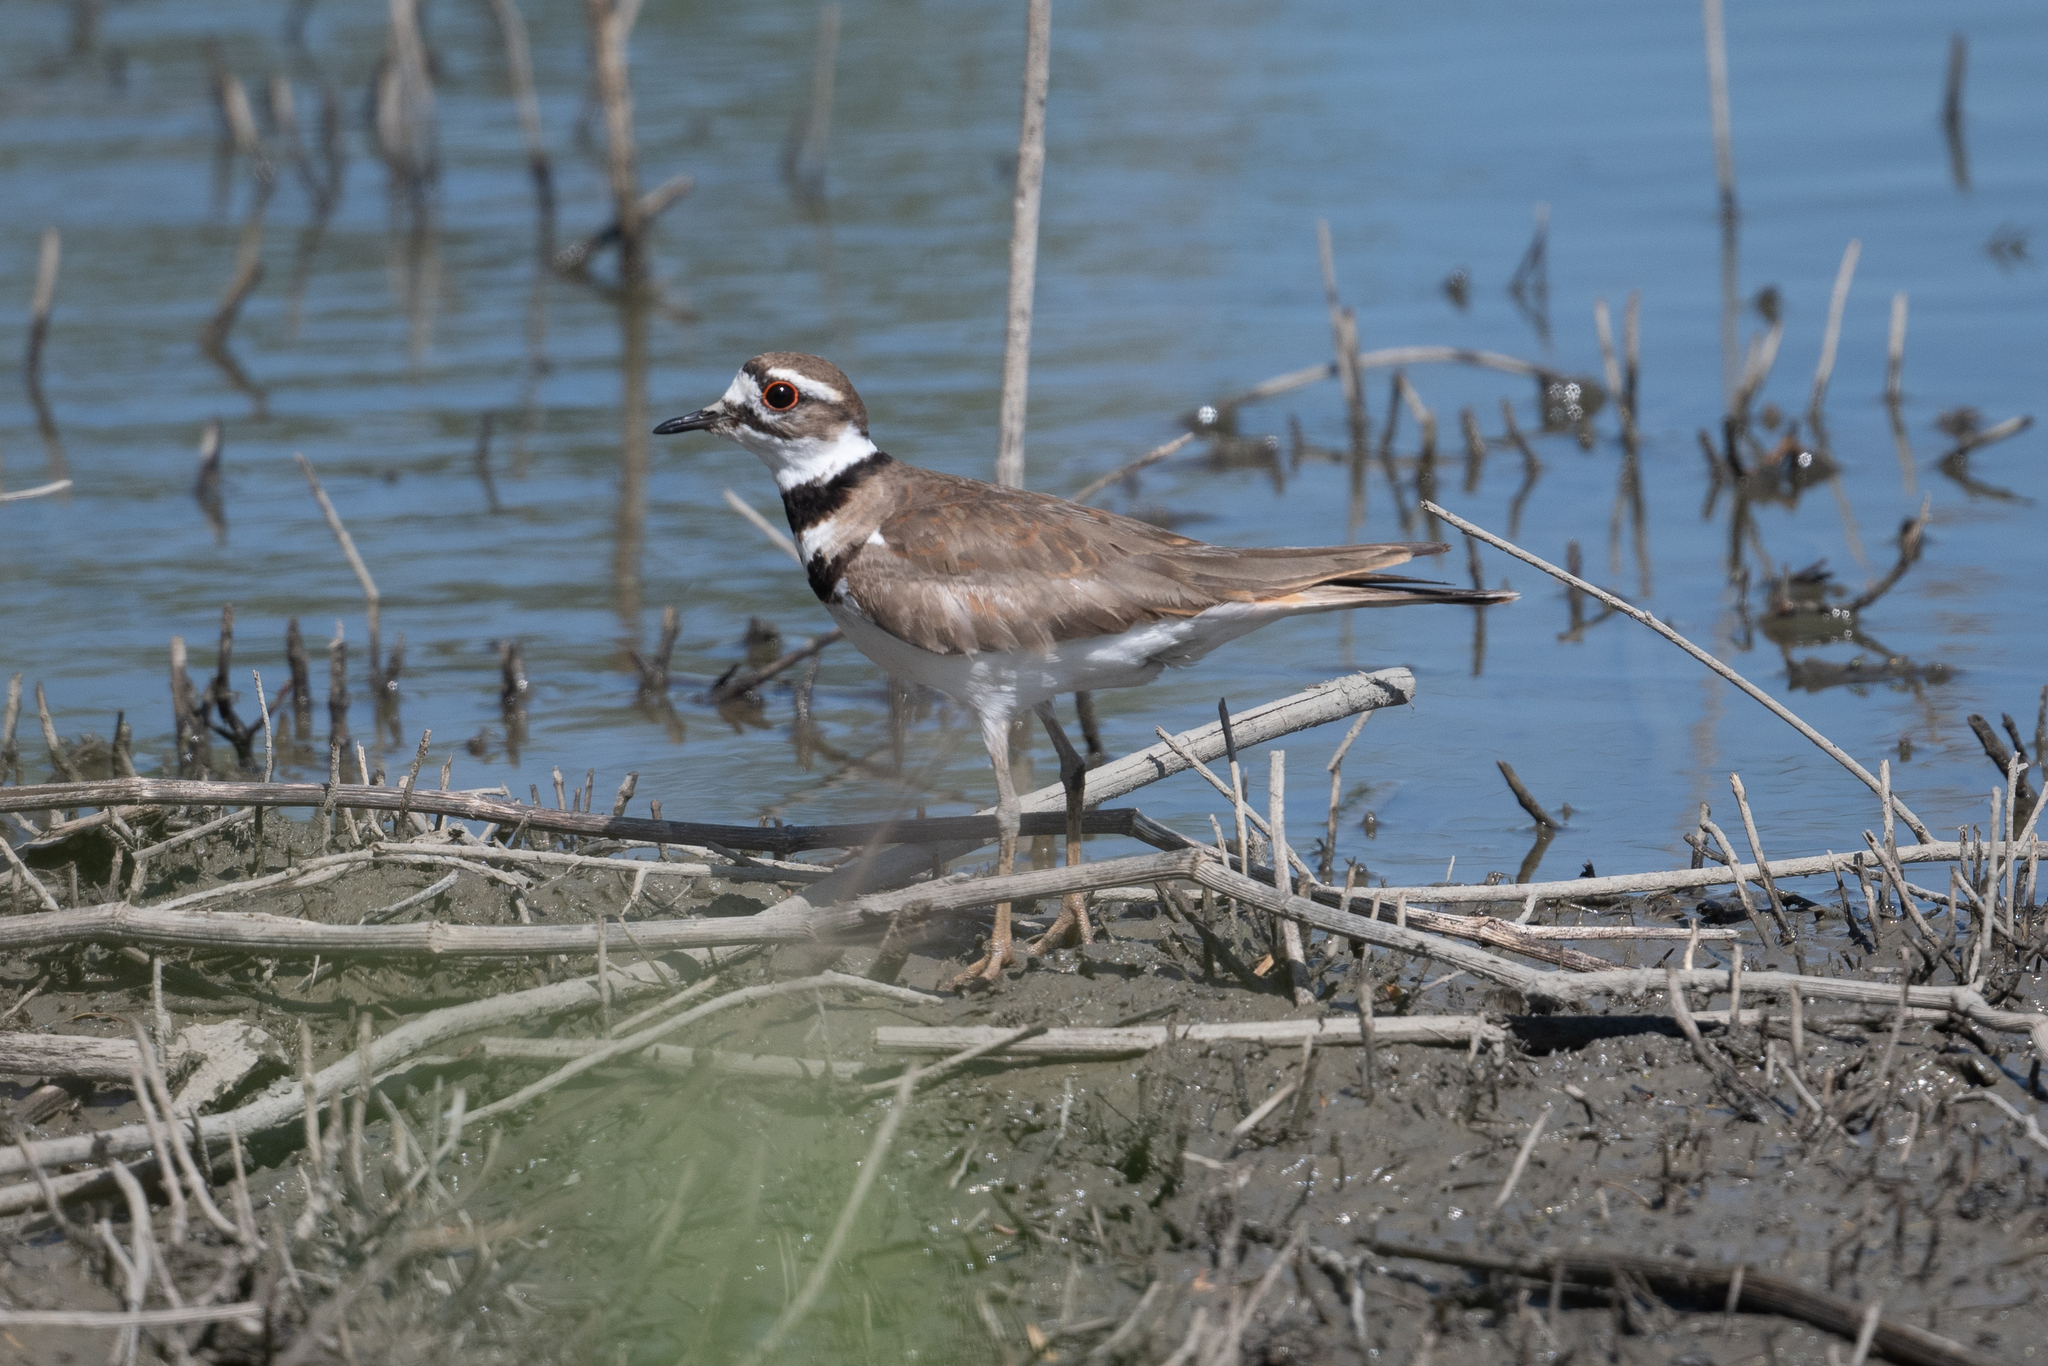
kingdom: Animalia
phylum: Chordata
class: Aves
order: Charadriiformes
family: Charadriidae
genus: Charadrius
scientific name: Charadrius vociferus
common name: Killdeer
